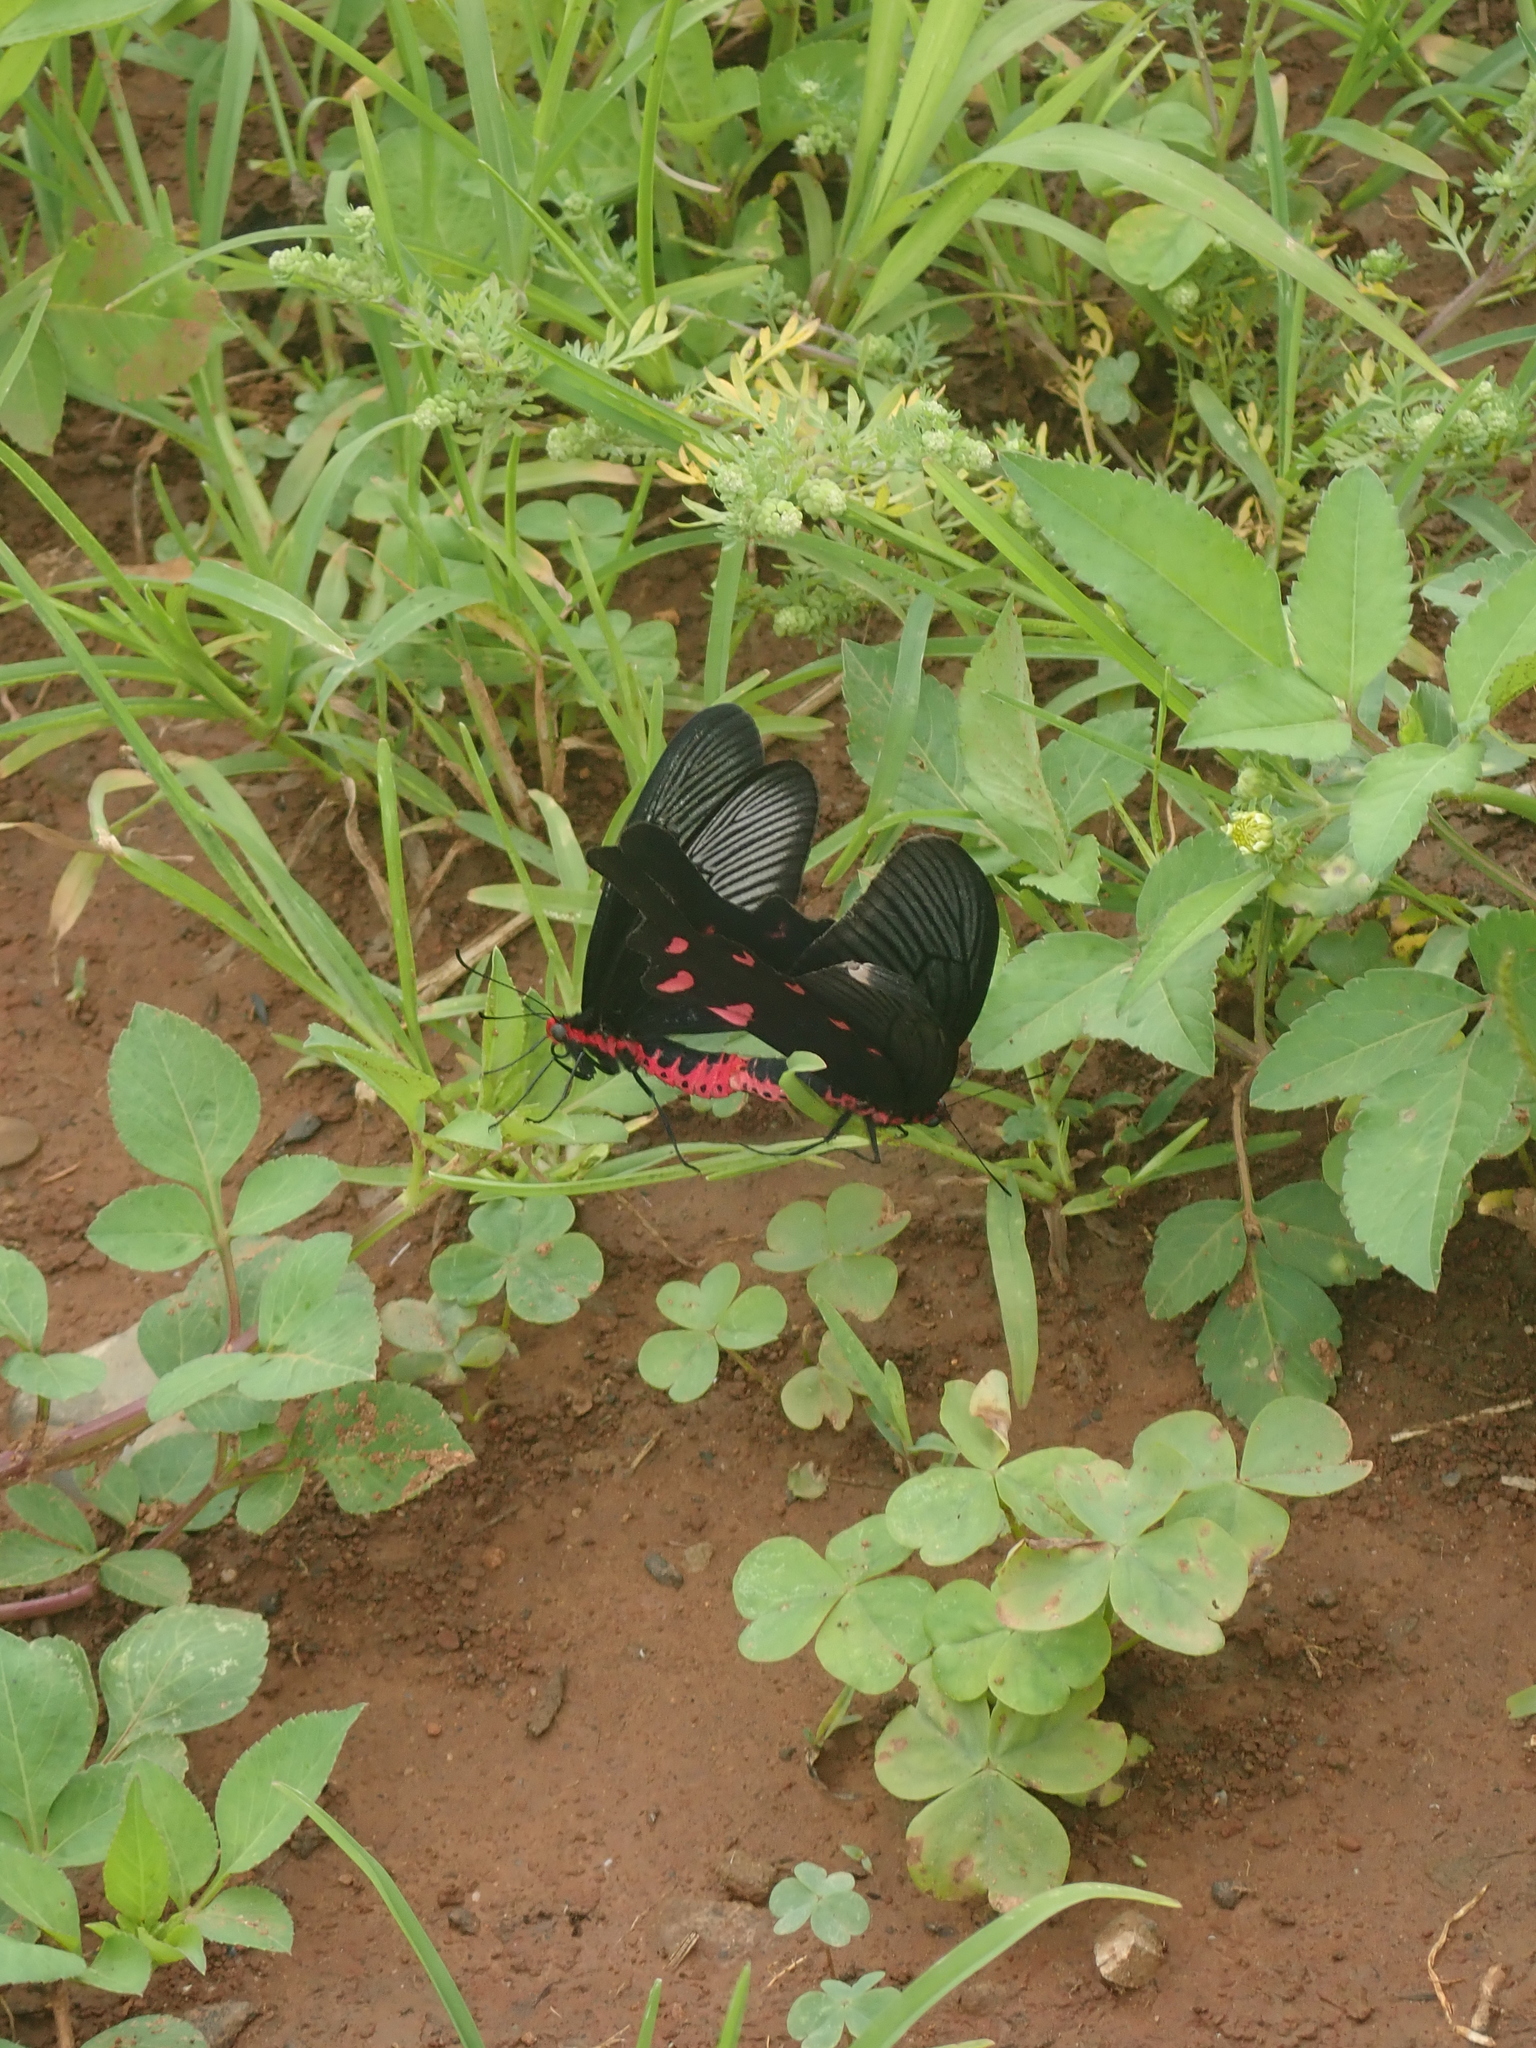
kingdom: Animalia
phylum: Arthropoda
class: Insecta
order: Lepidoptera
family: Papilionidae
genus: Byasa
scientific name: Byasa confusus
